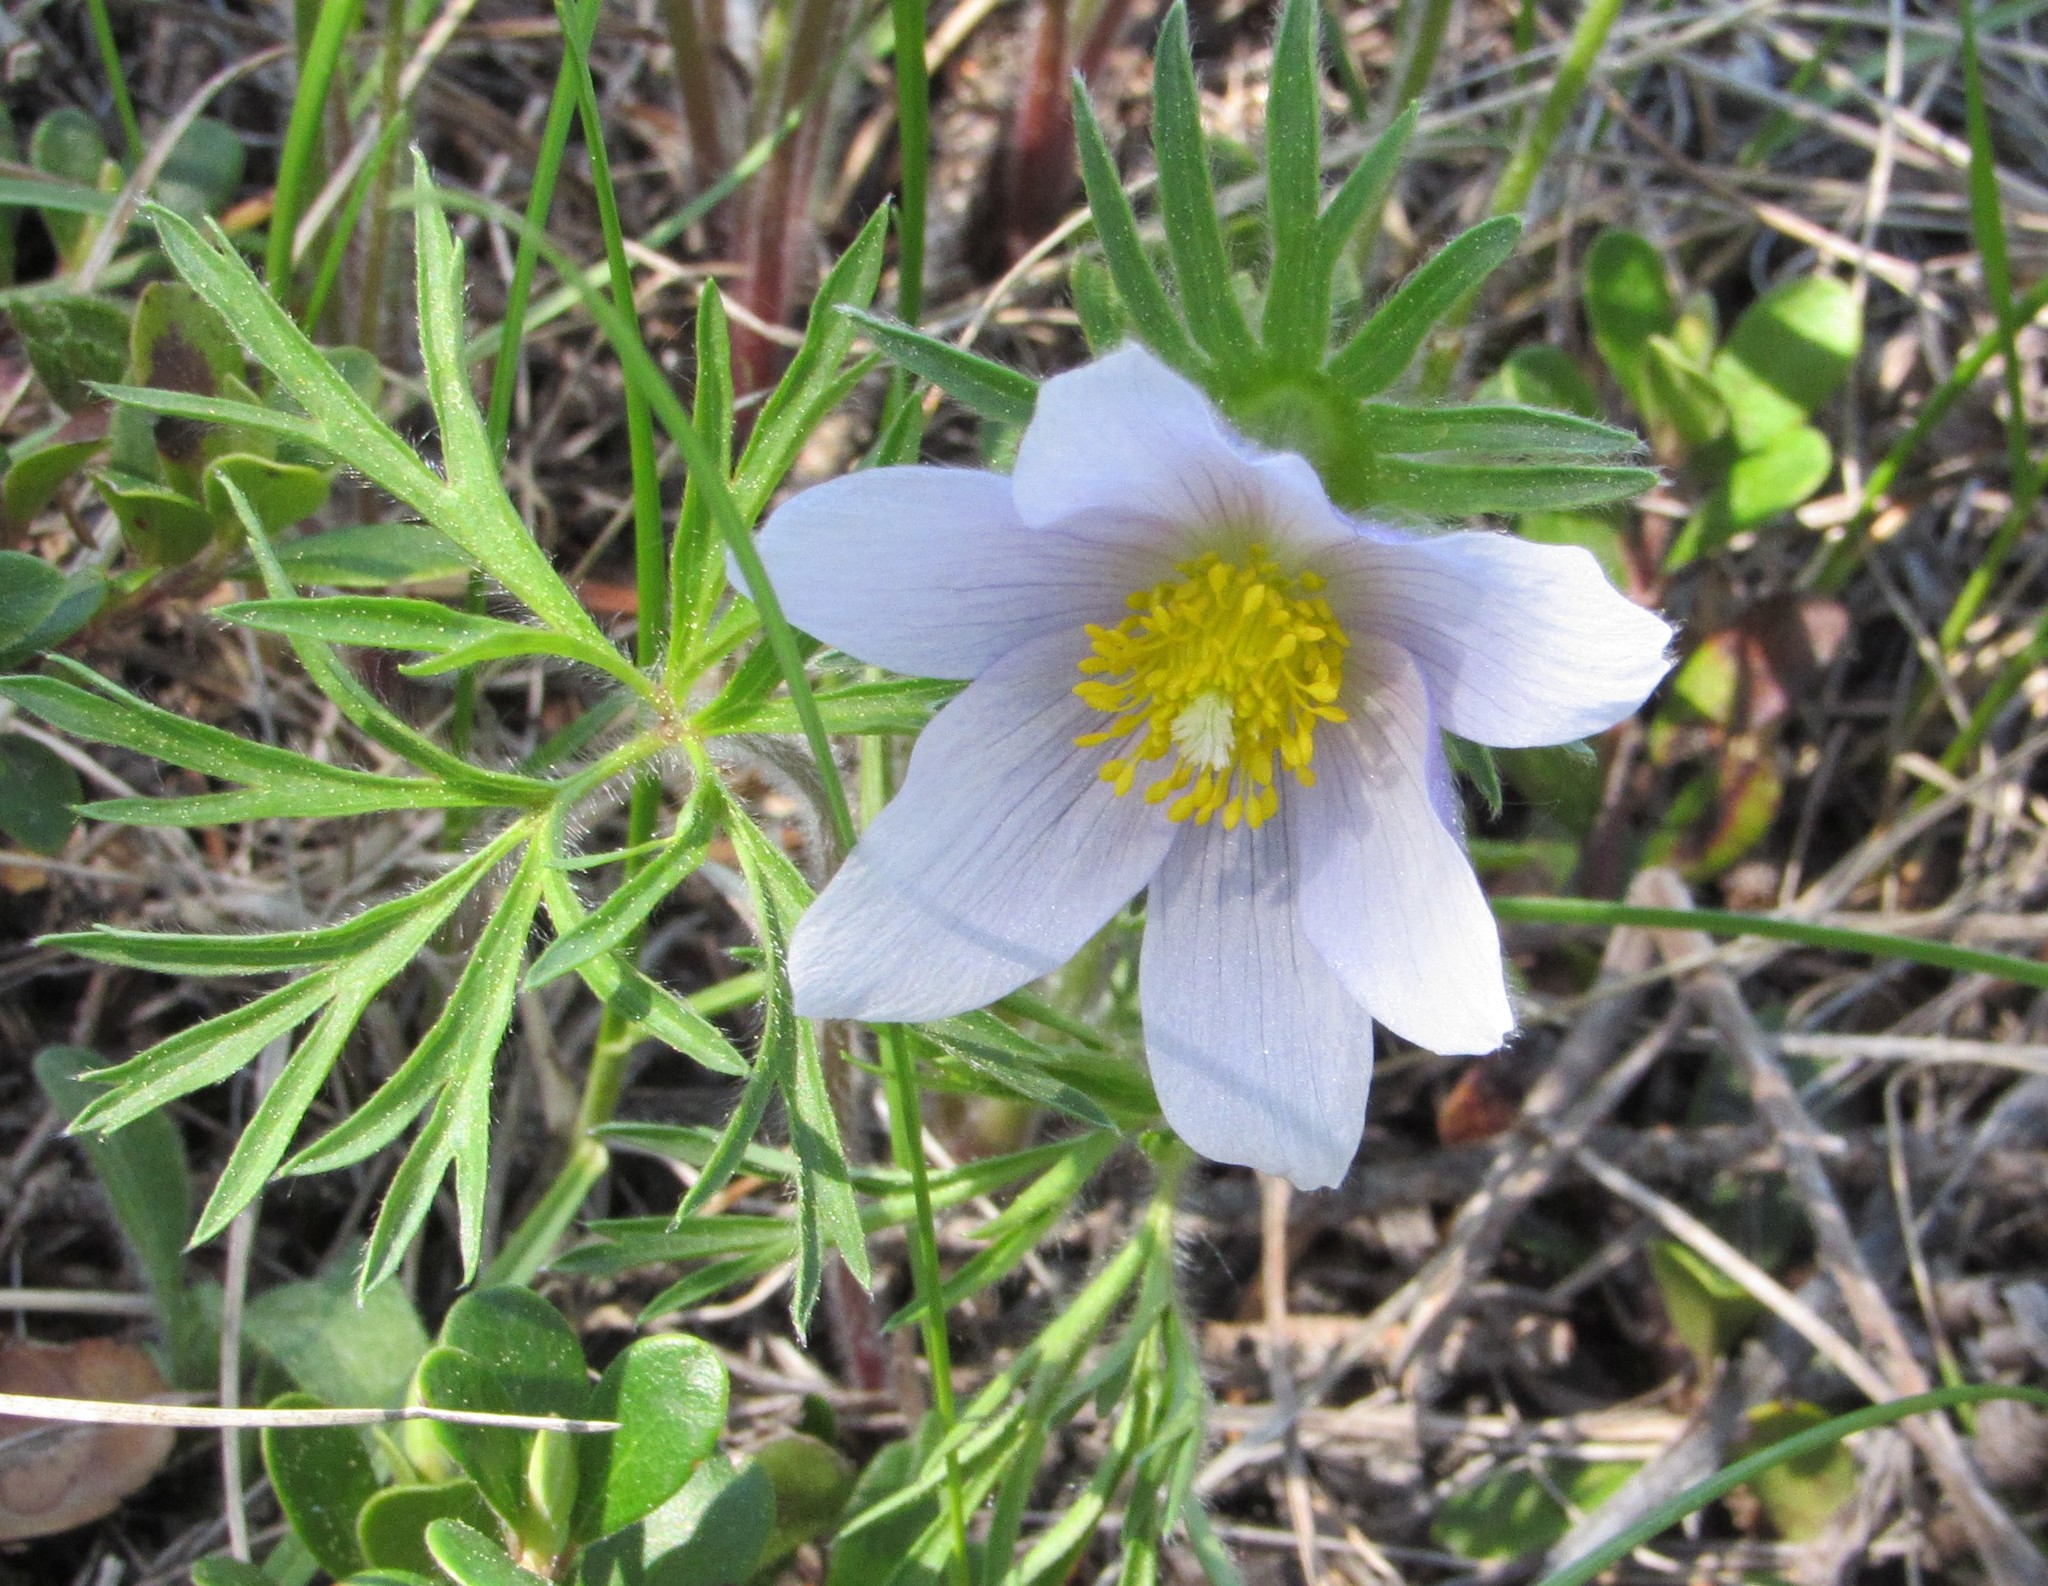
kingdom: Plantae
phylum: Tracheophyta
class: Magnoliopsida
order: Ranunculales
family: Ranunculaceae
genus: Pulsatilla
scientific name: Pulsatilla nuttalliana
